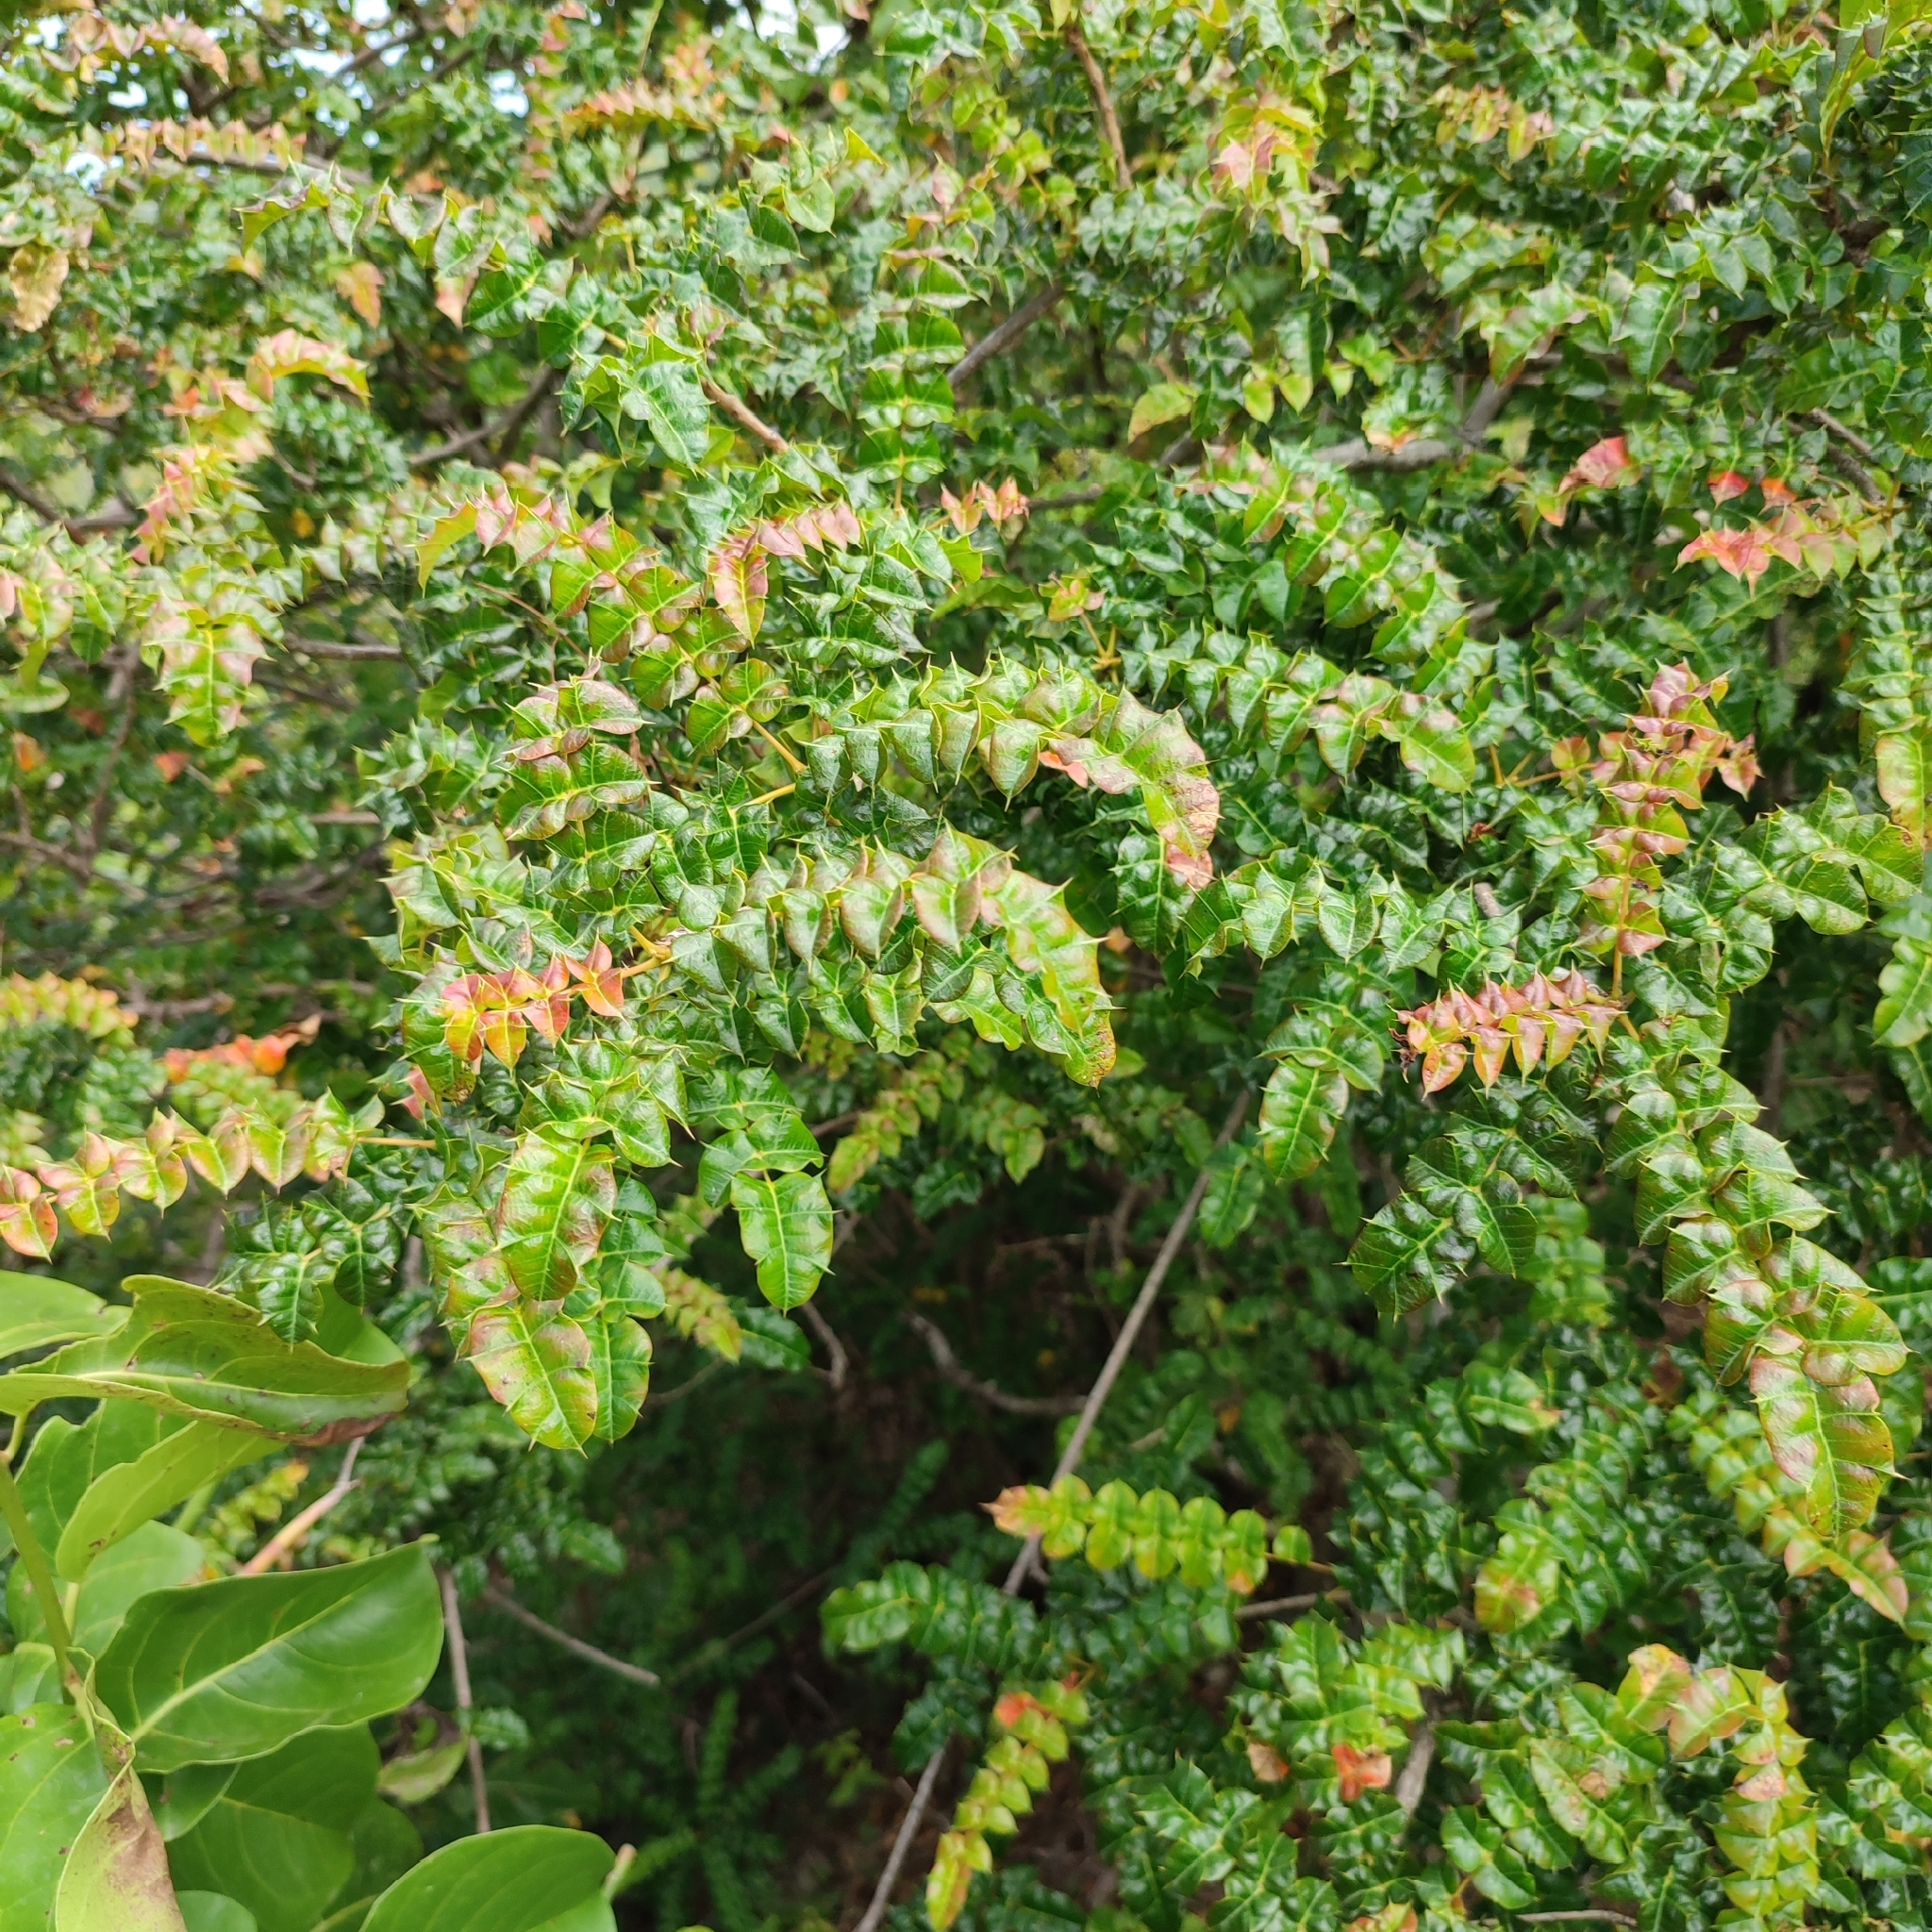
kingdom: Plantae
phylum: Tracheophyta
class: Magnoliopsida
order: Sapindales
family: Anacardiaceae
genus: Comocladia
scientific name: Comocladia dodonaea
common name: Poison ash
